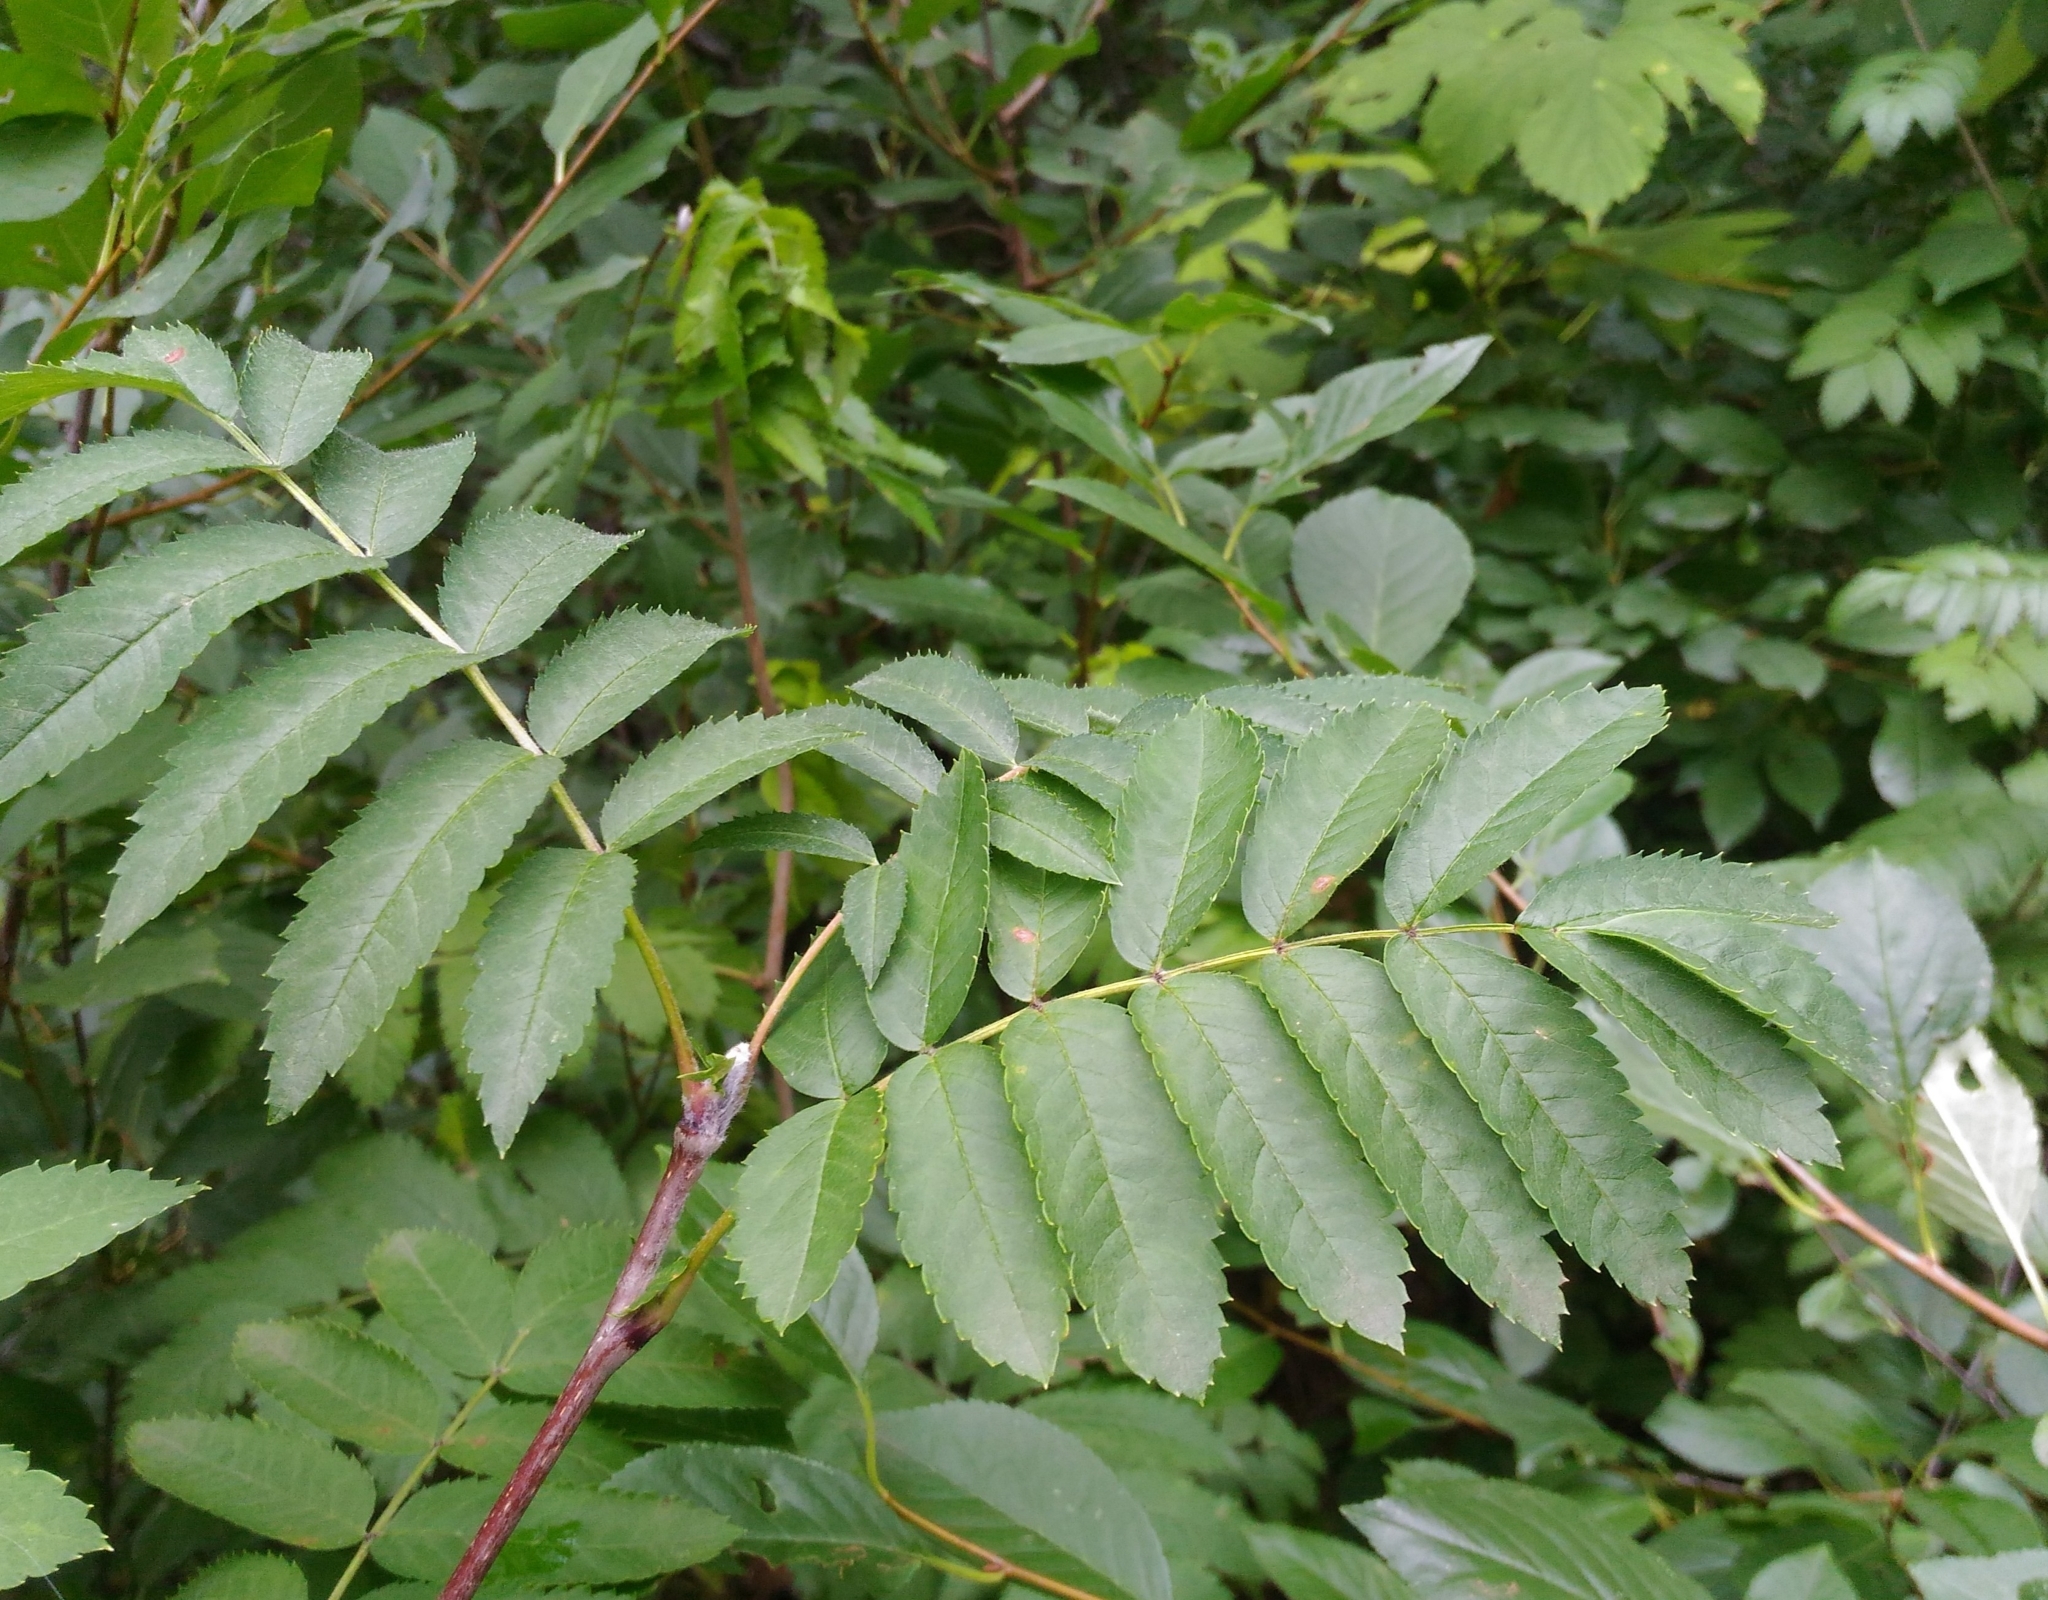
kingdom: Plantae
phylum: Tracheophyta
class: Magnoliopsida
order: Rosales
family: Rosaceae
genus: Sorbus
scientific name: Sorbus aucuparia
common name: Rowan
